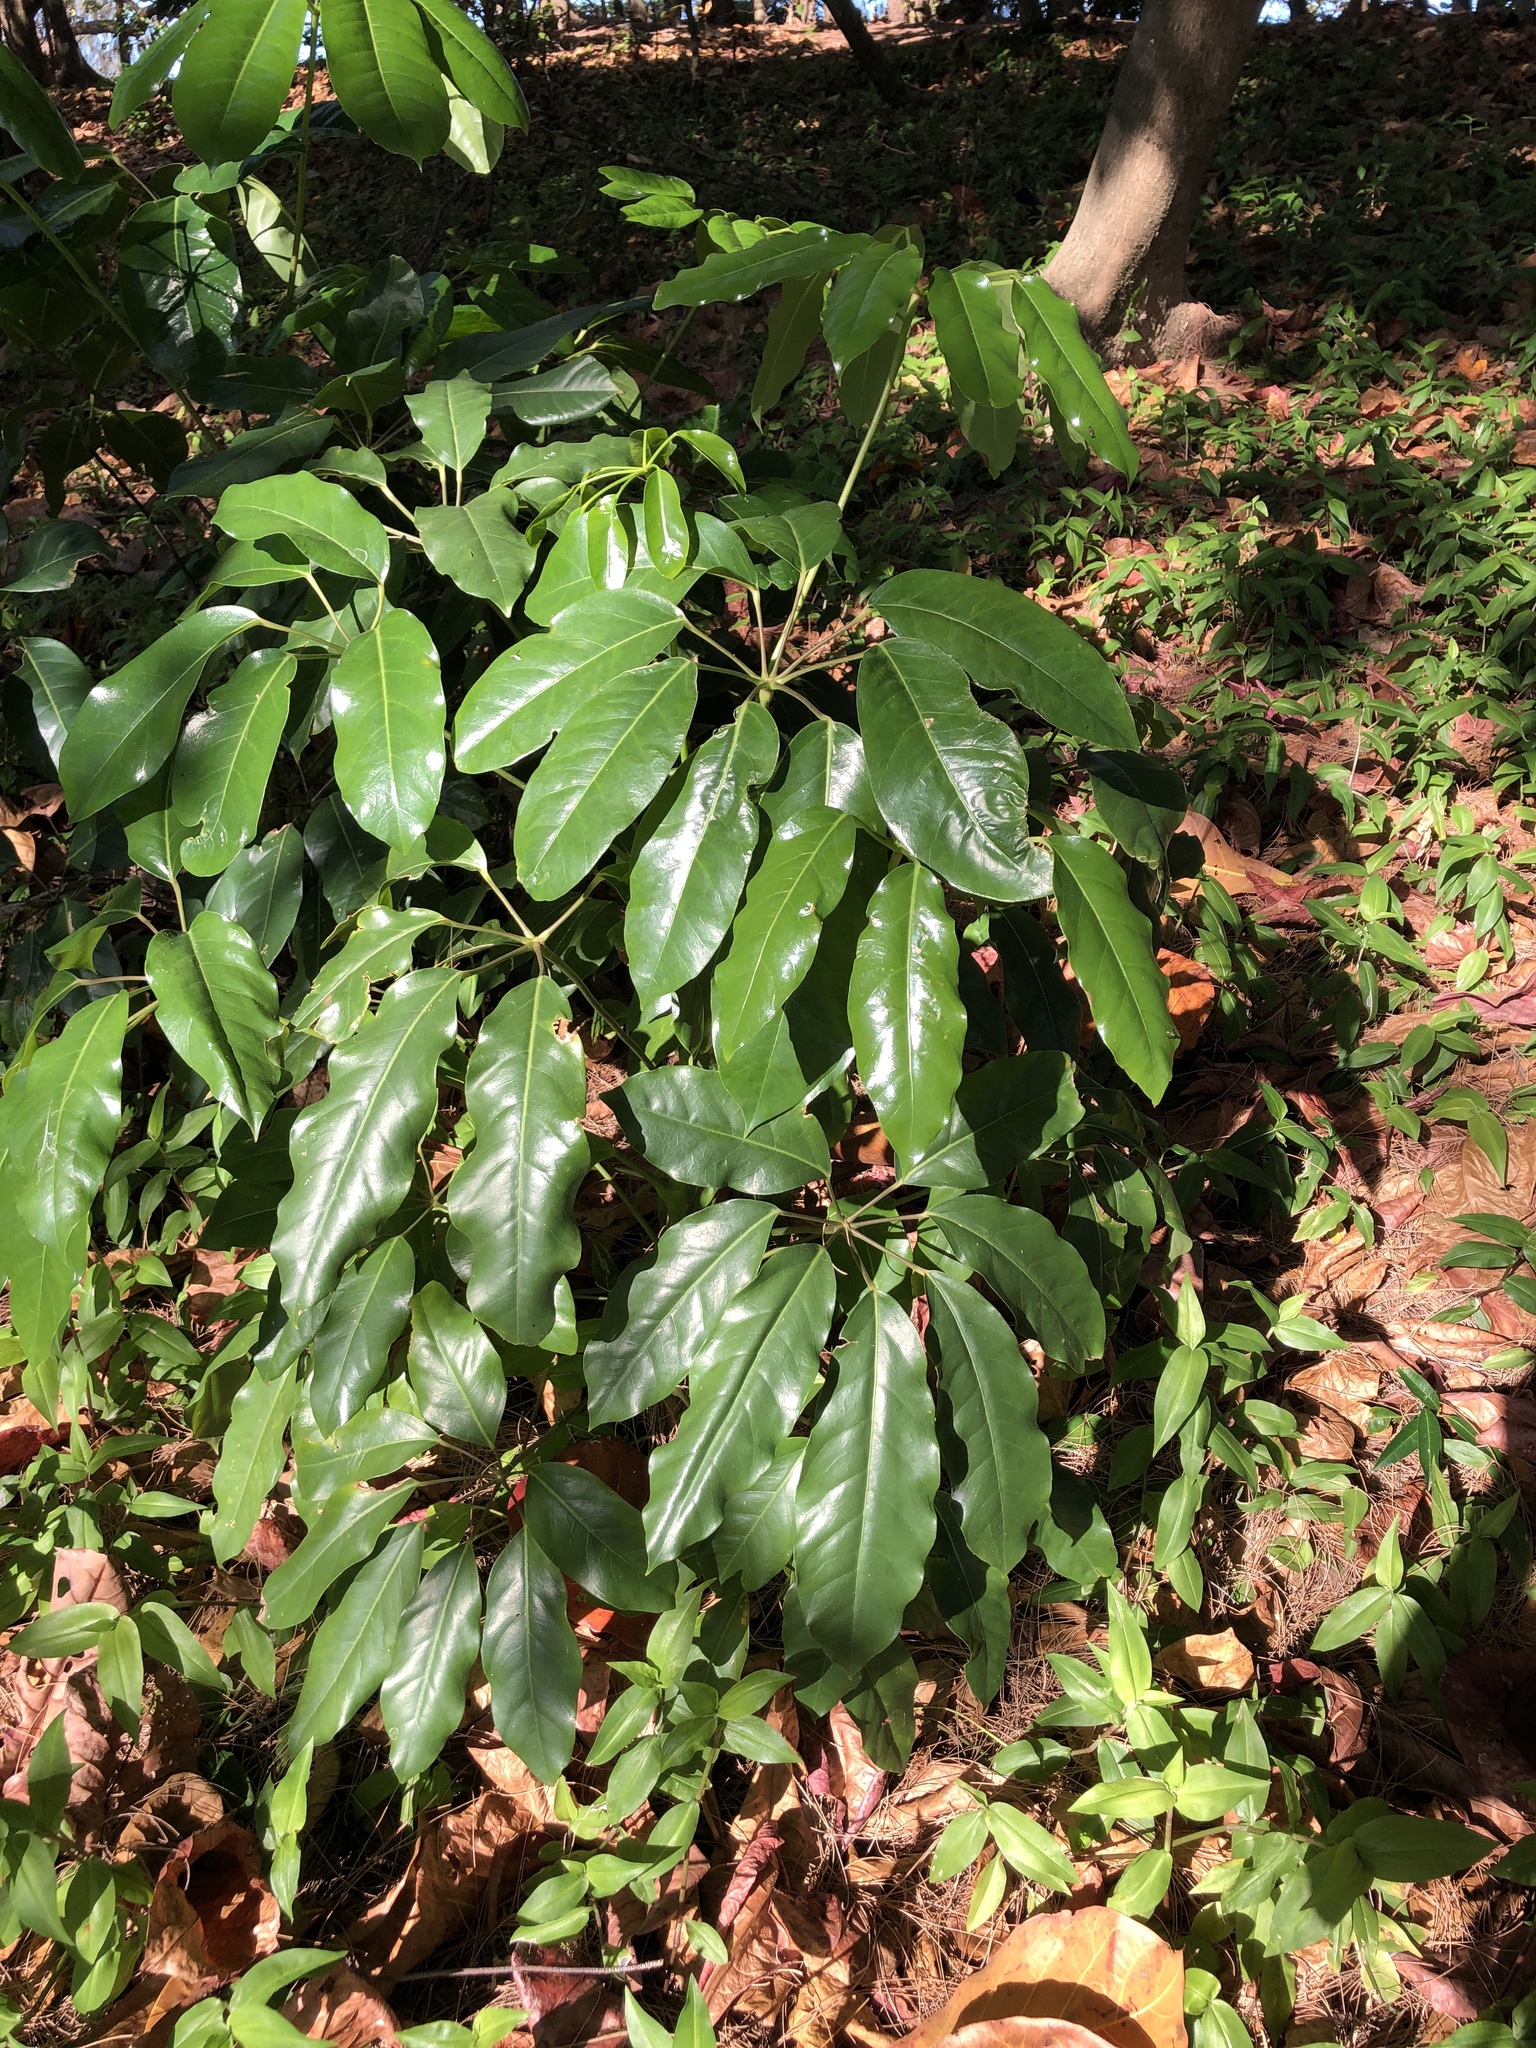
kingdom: Plantae
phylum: Tracheophyta
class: Magnoliopsida
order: Apiales
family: Araliaceae
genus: Heptapleurum
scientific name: Heptapleurum actinophyllum
